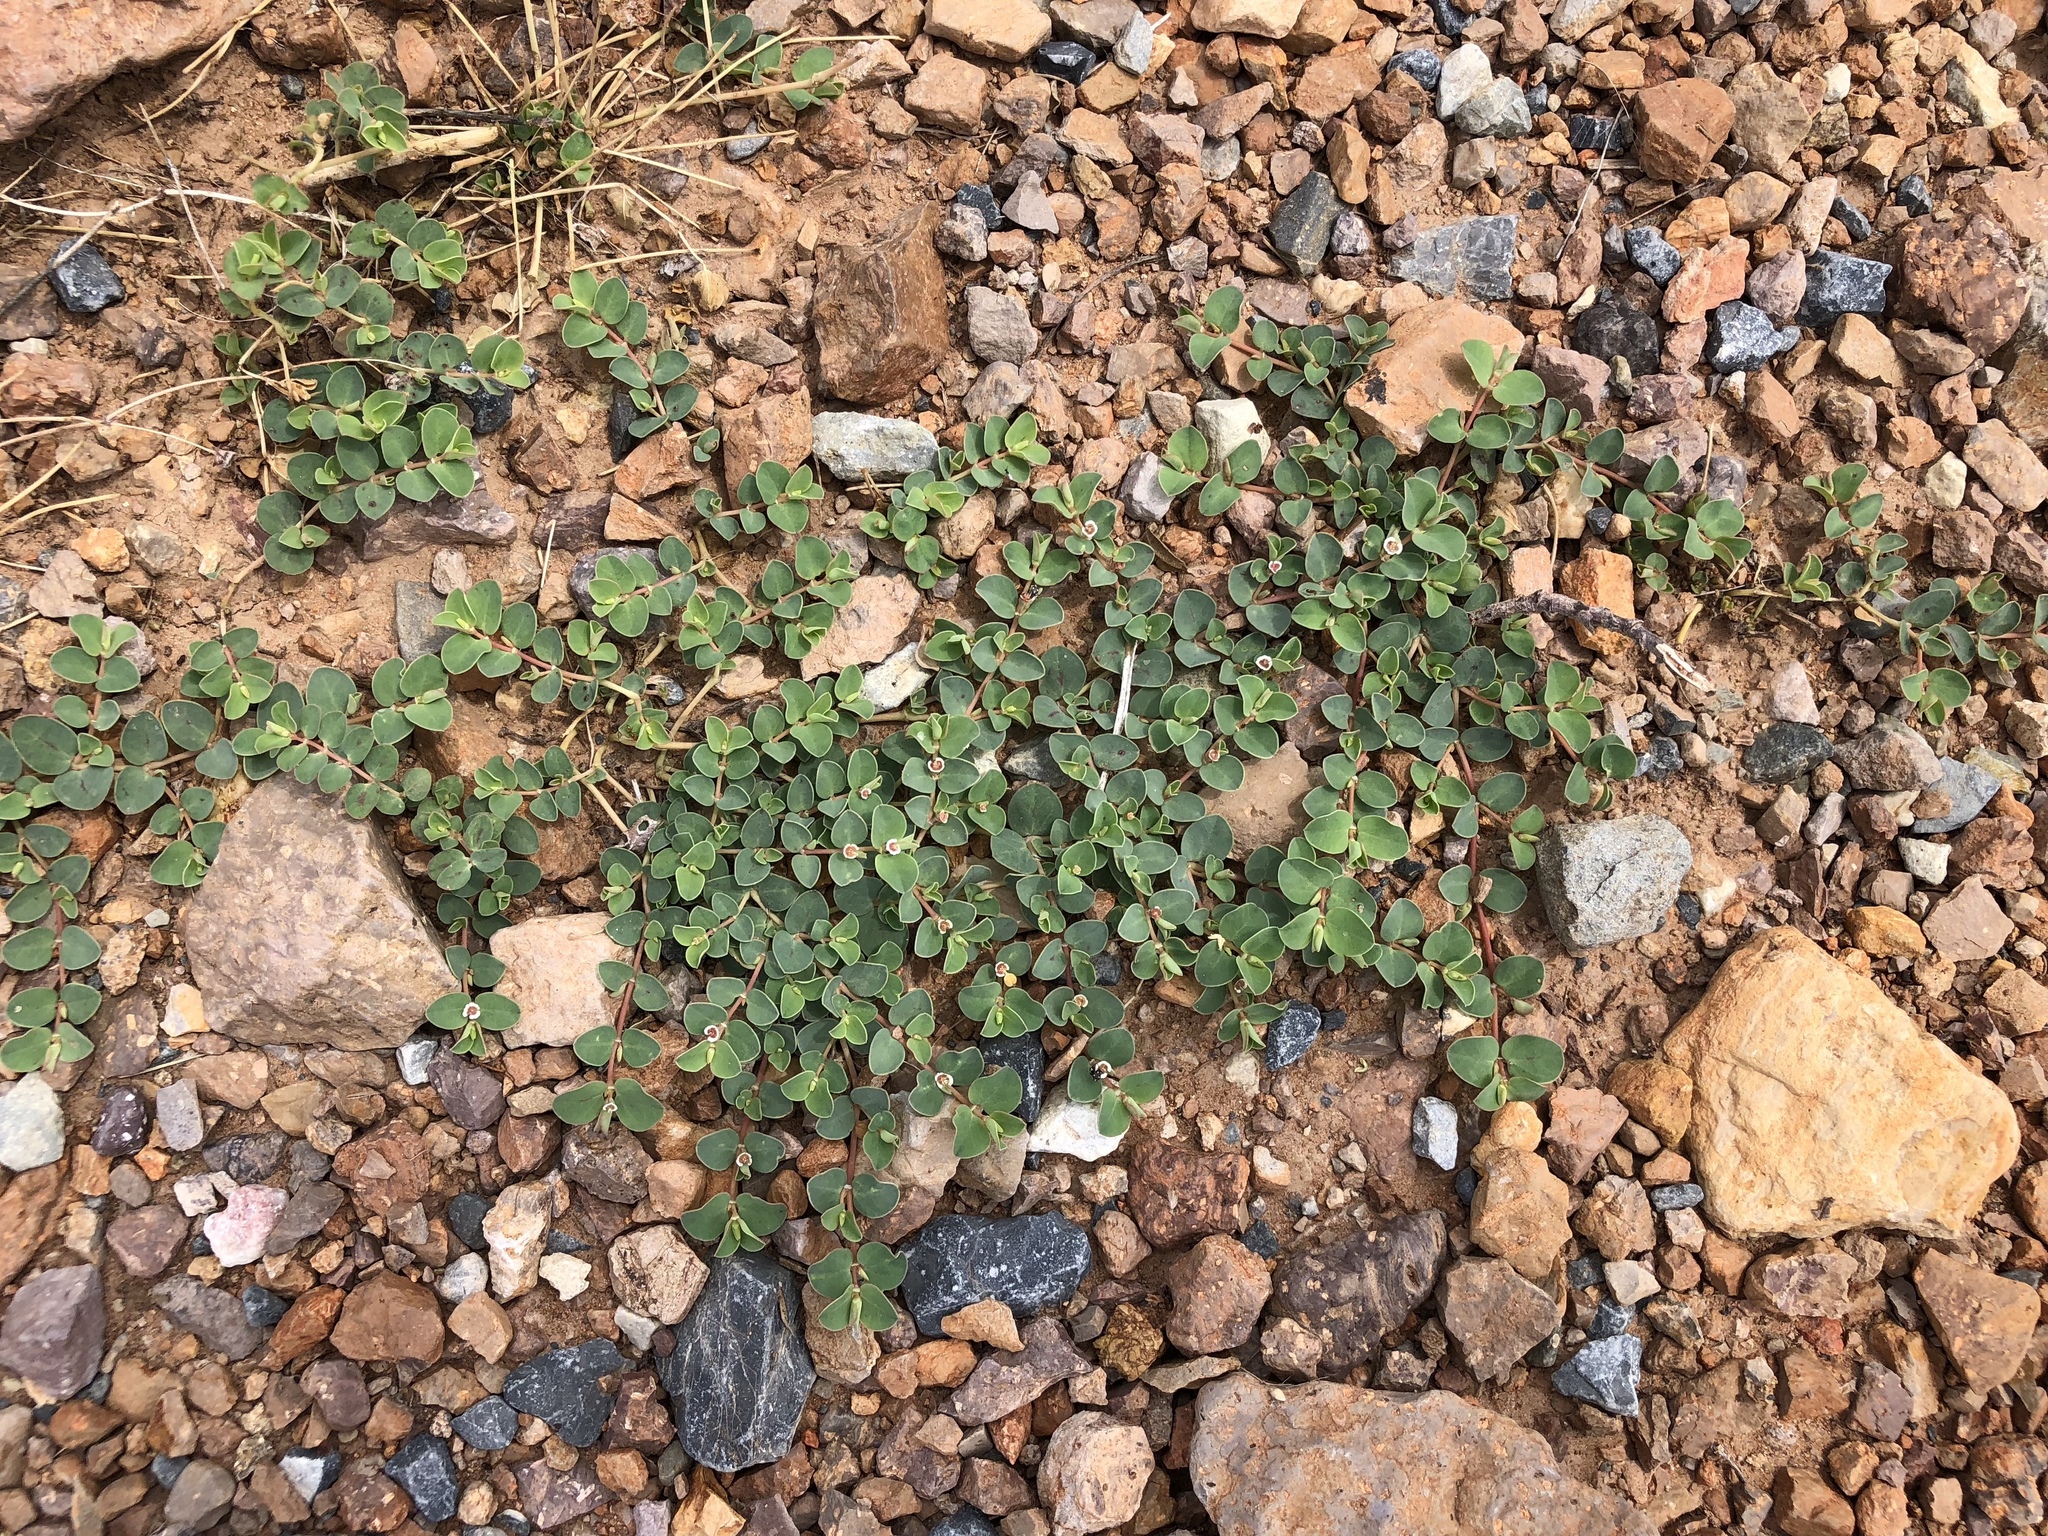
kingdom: Plantae
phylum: Tracheophyta
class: Magnoliopsida
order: Malpighiales
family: Euphorbiaceae
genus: Euphorbia
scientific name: Euphorbia albomarginata
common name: Whitemargin sandmat
